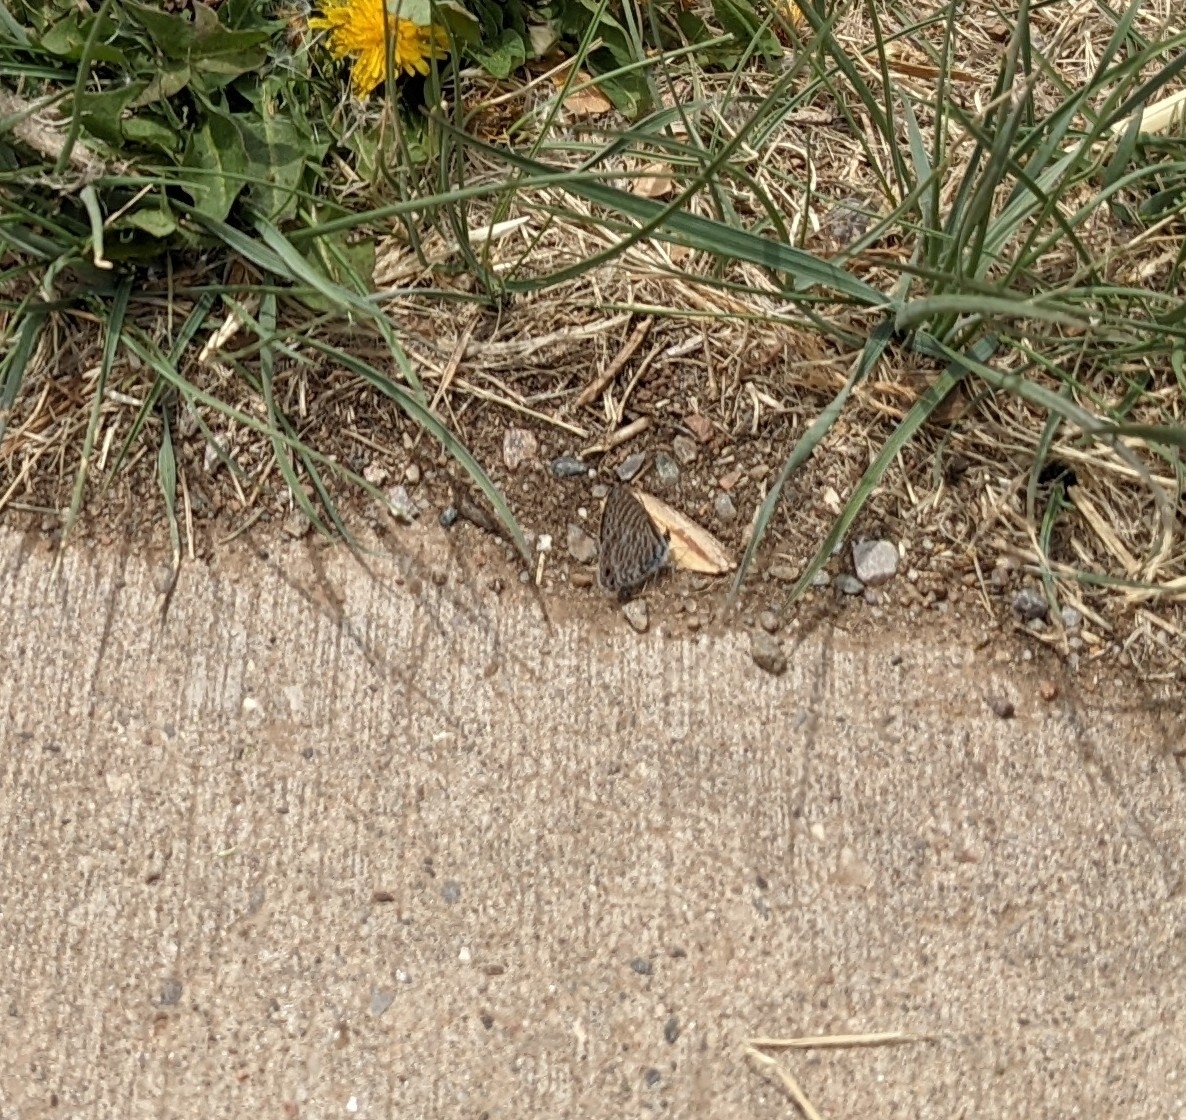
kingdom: Animalia
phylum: Arthropoda
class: Insecta
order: Lepidoptera
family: Lycaenidae
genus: Leptotes
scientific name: Leptotes marina
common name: Marine blue
